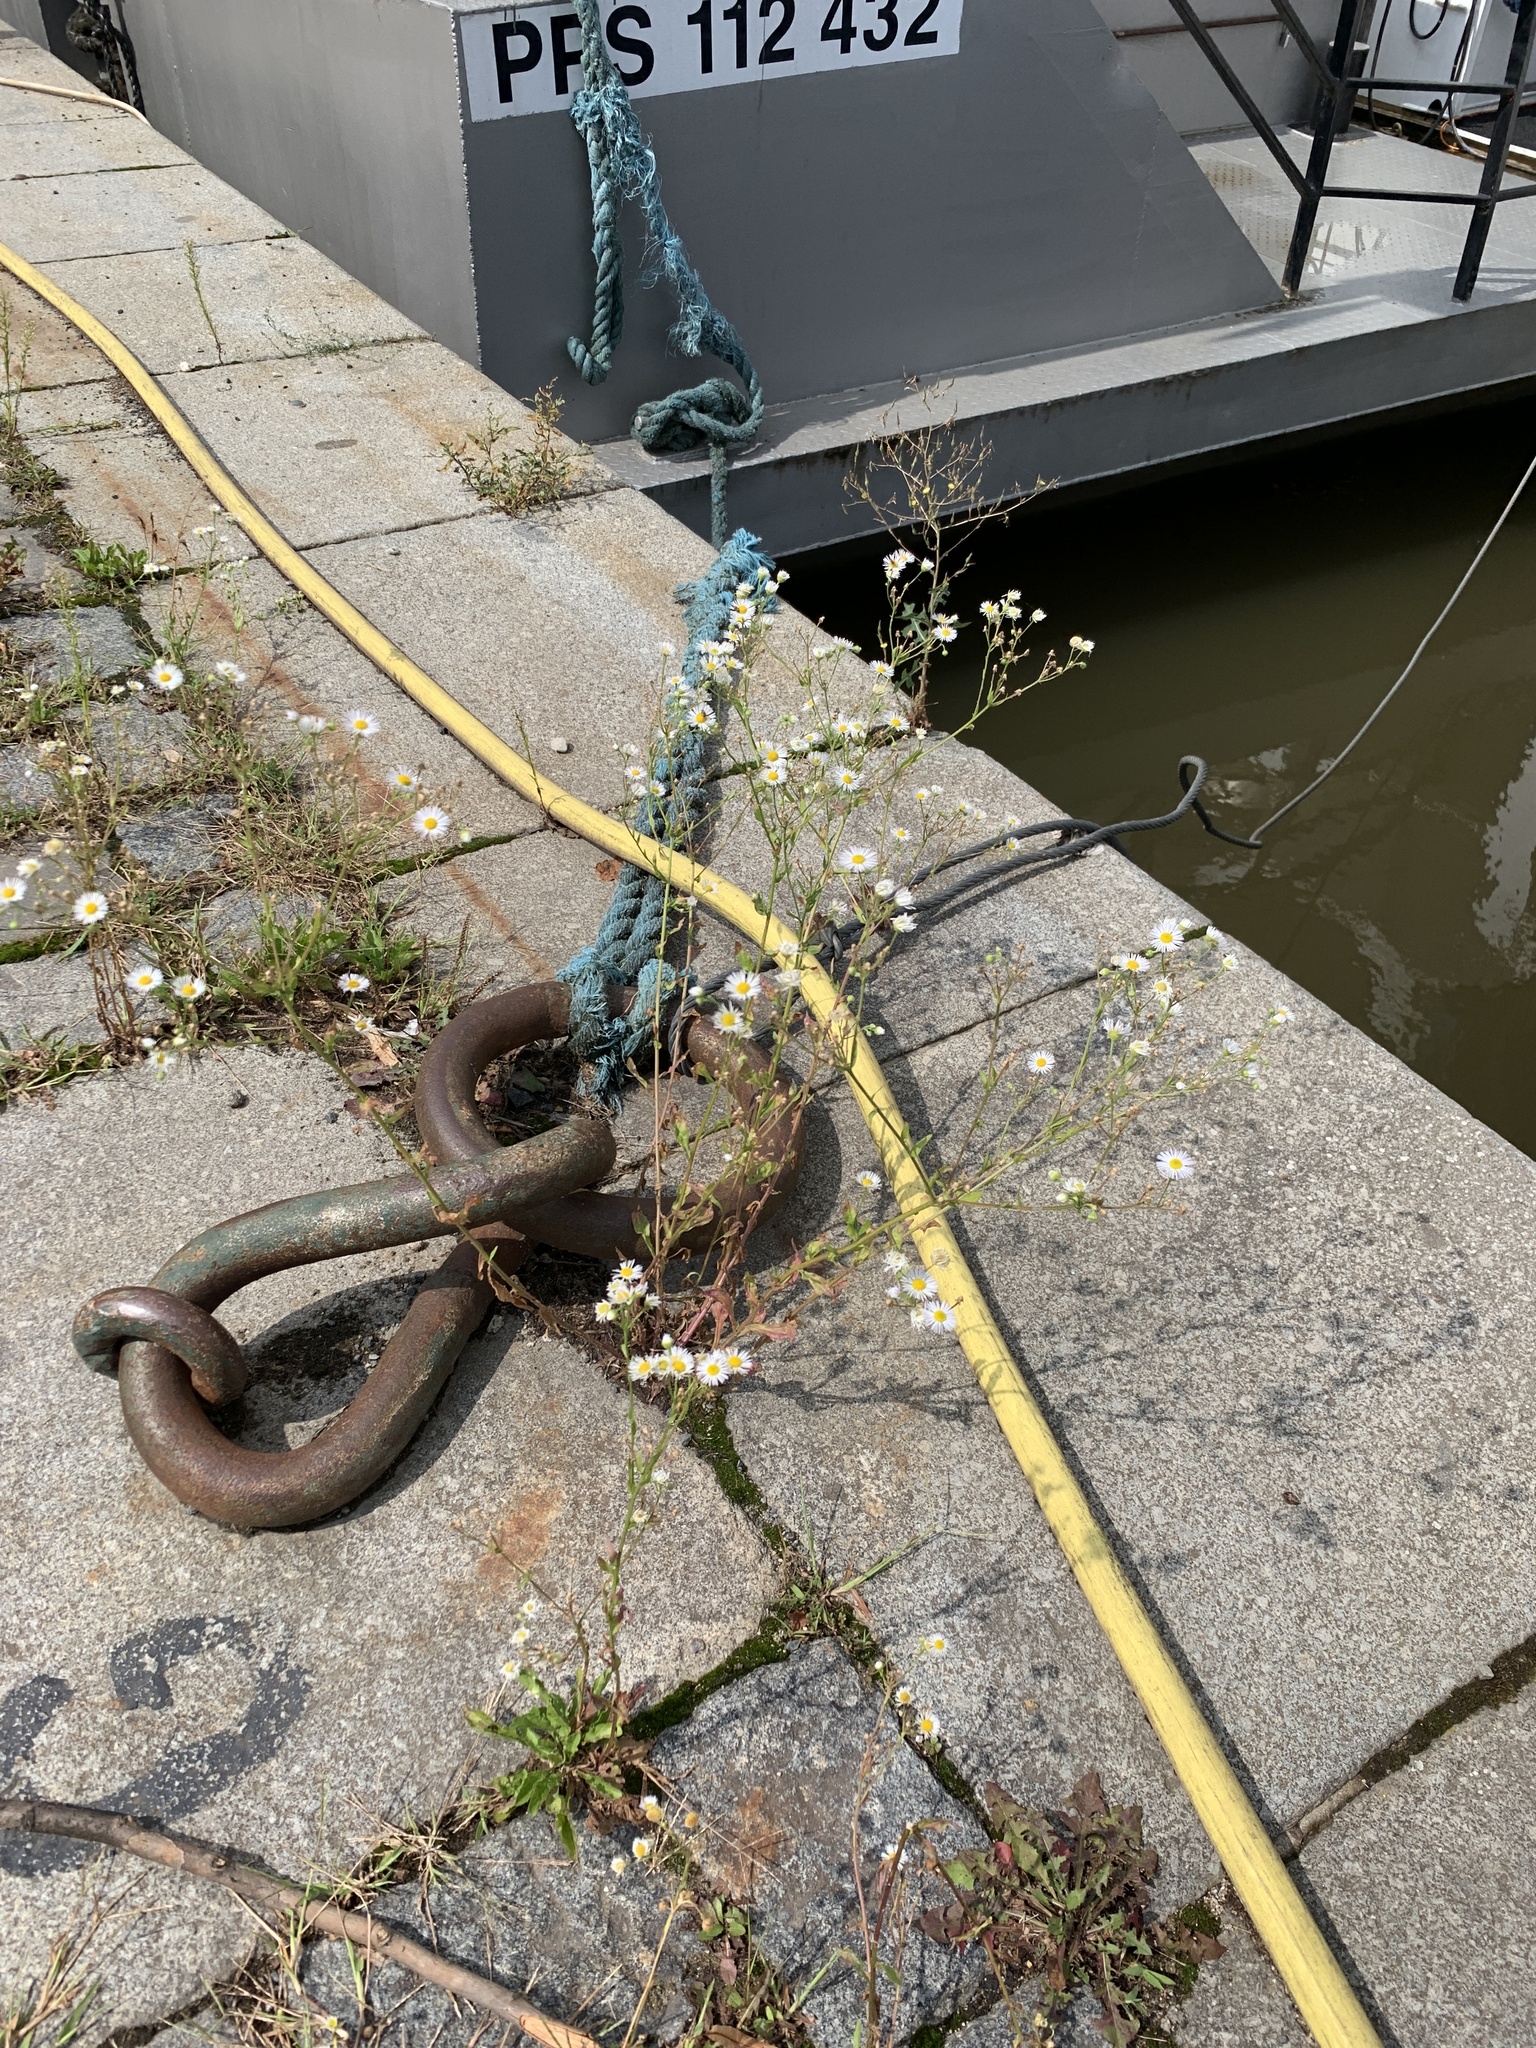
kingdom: Plantae
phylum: Tracheophyta
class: Magnoliopsida
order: Asterales
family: Asteraceae
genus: Erigeron
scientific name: Erigeron annuus
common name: Tall fleabane
